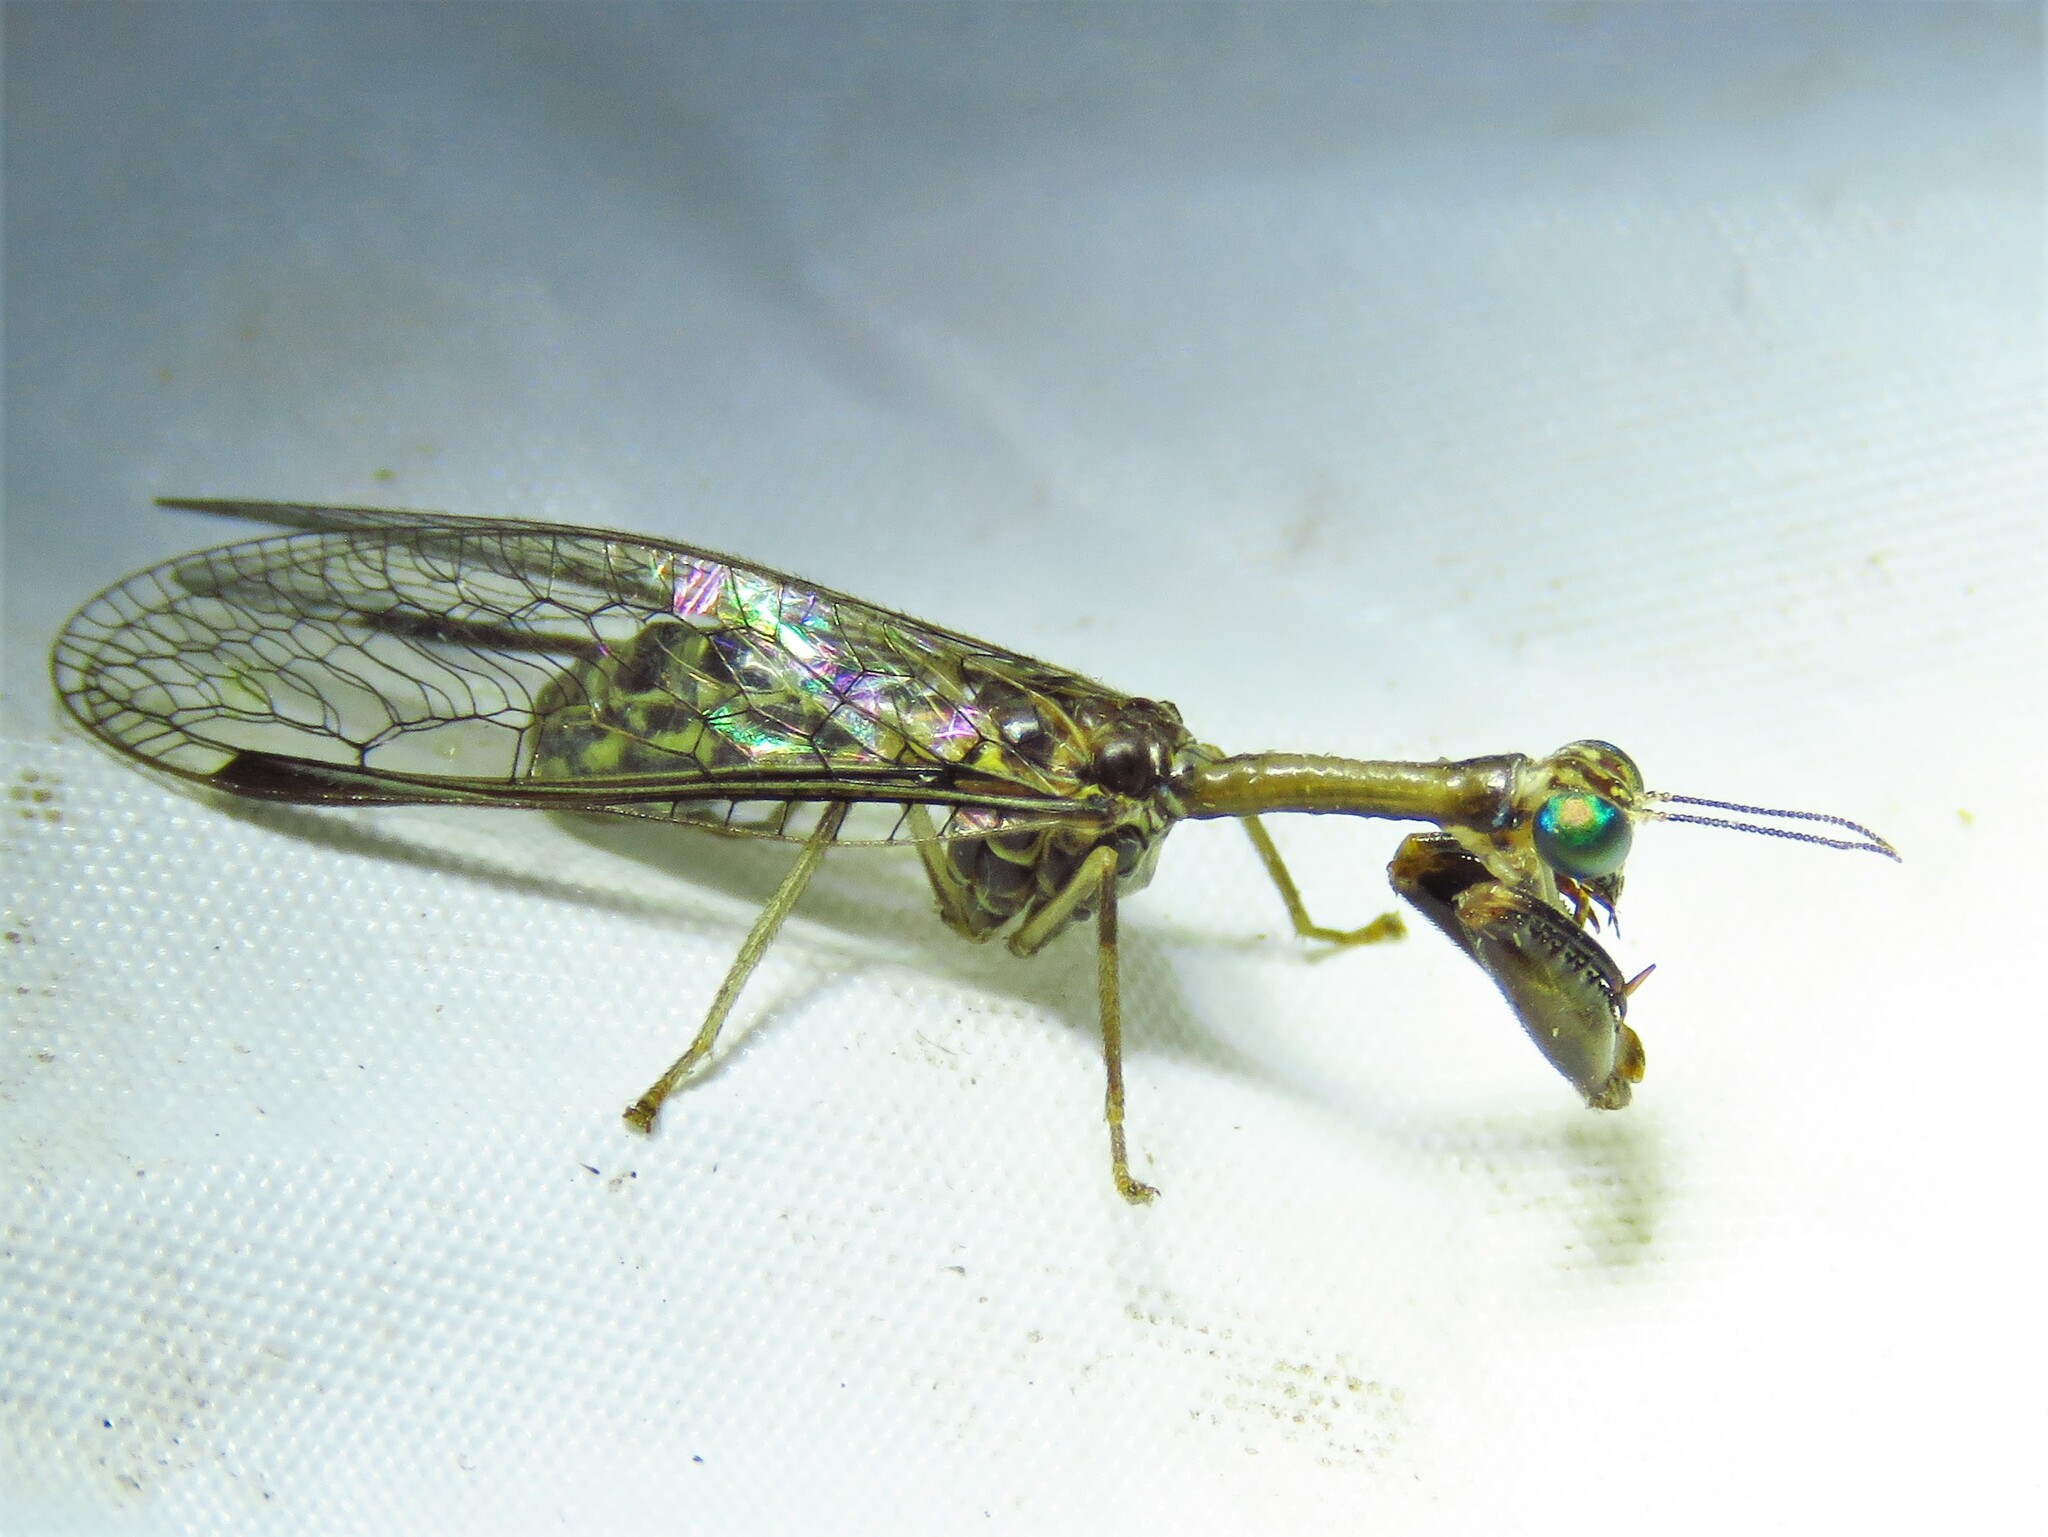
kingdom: Animalia
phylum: Arthropoda
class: Insecta
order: Neuroptera
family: Mantispidae
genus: Dicromantispa
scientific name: Dicromantispa sayi
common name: Say's mantidfly
